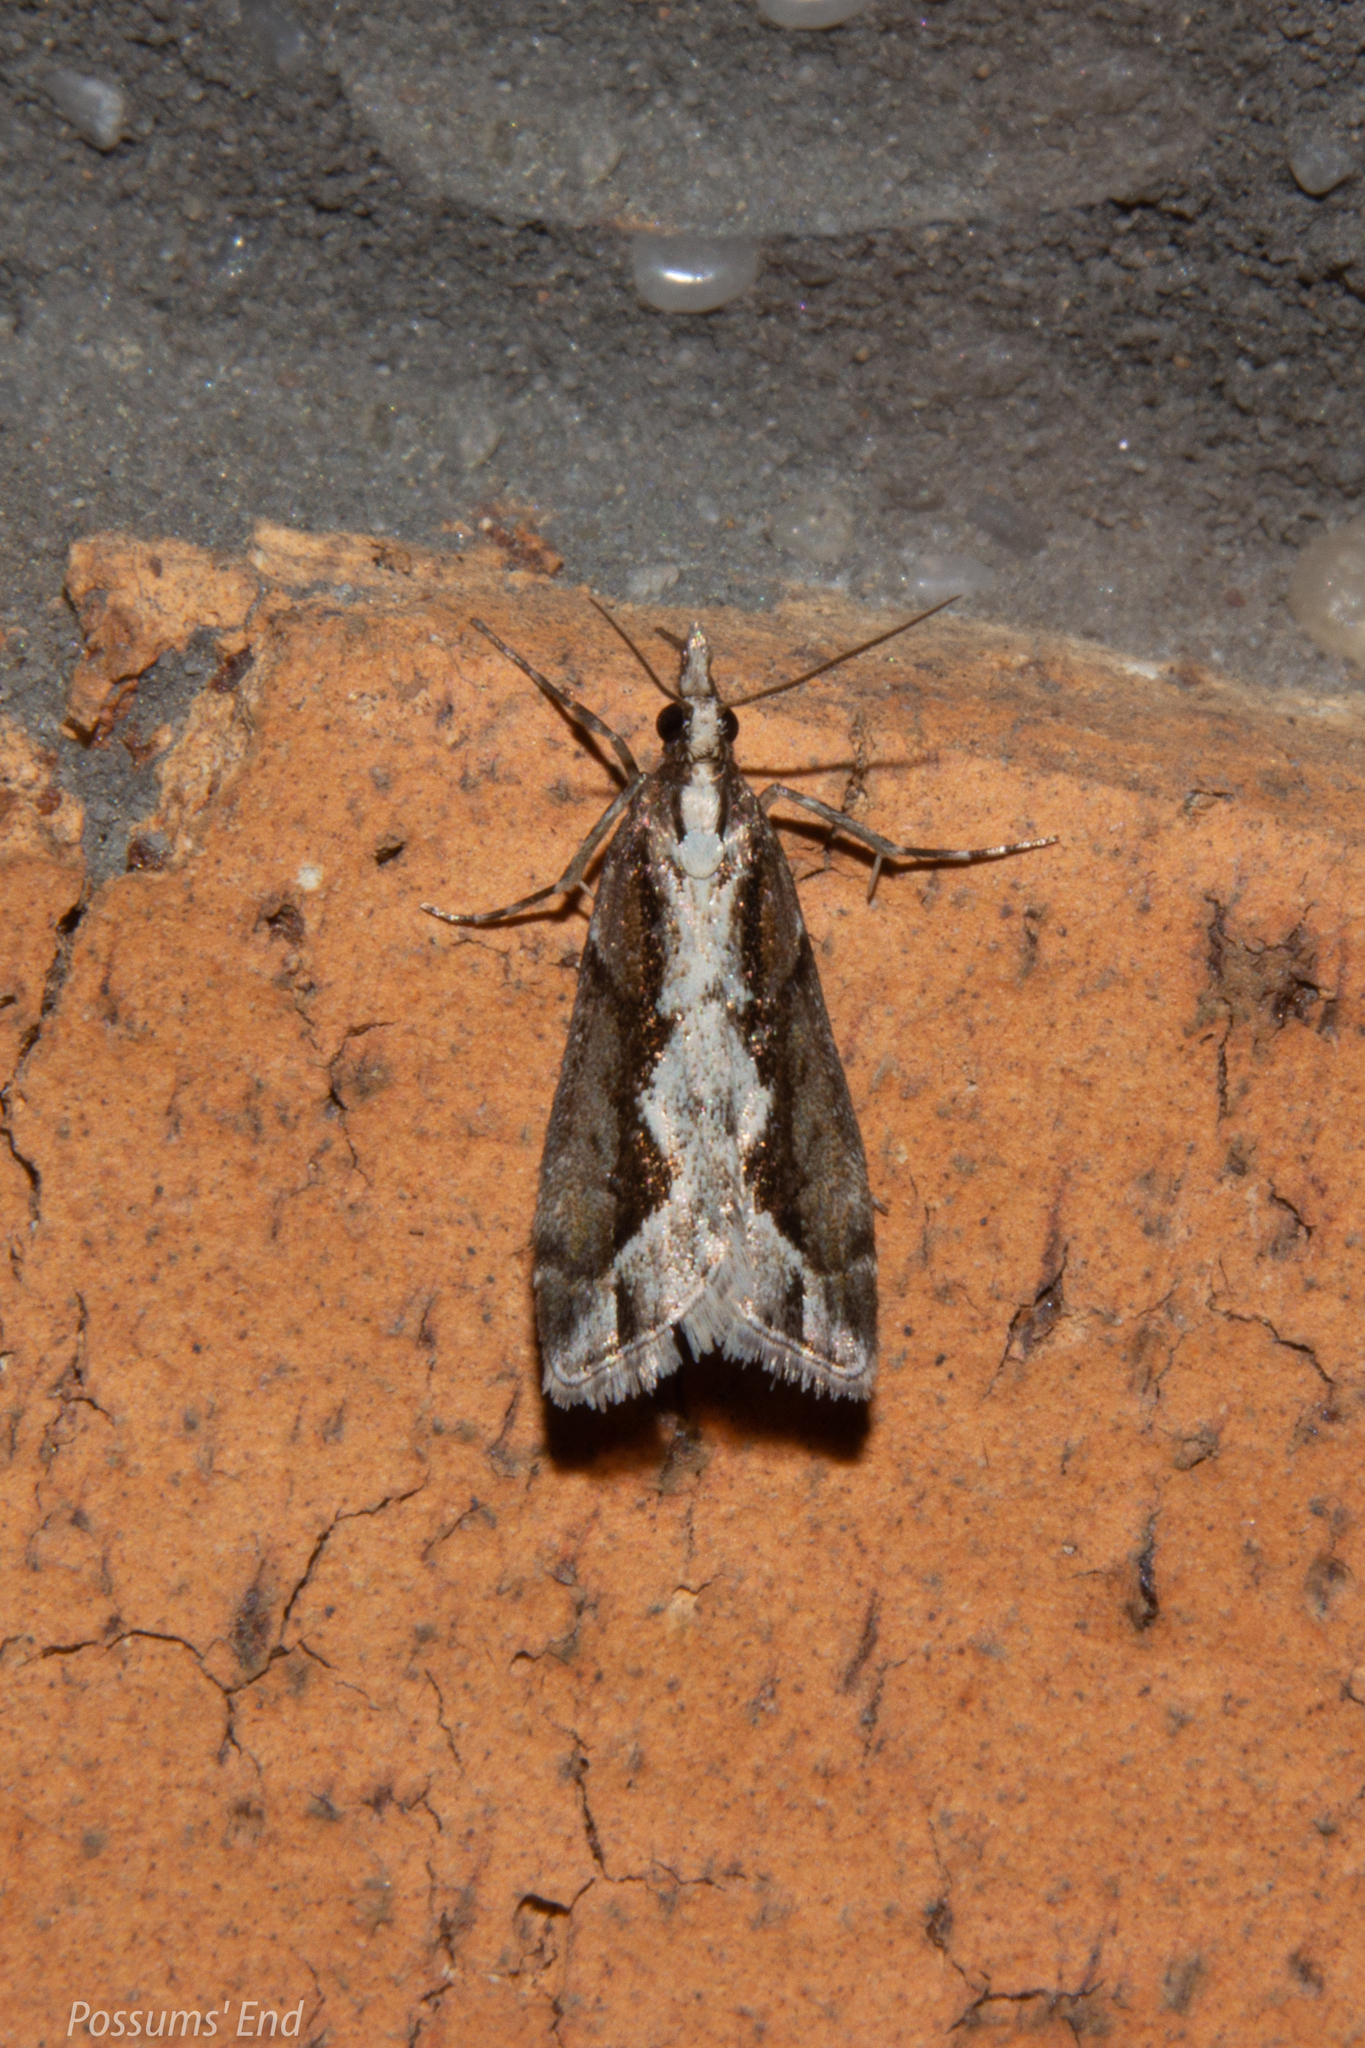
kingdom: Animalia
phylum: Arthropoda
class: Insecta
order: Lepidoptera
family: Crambidae
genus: Eudonia
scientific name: Eudonia steropaea
